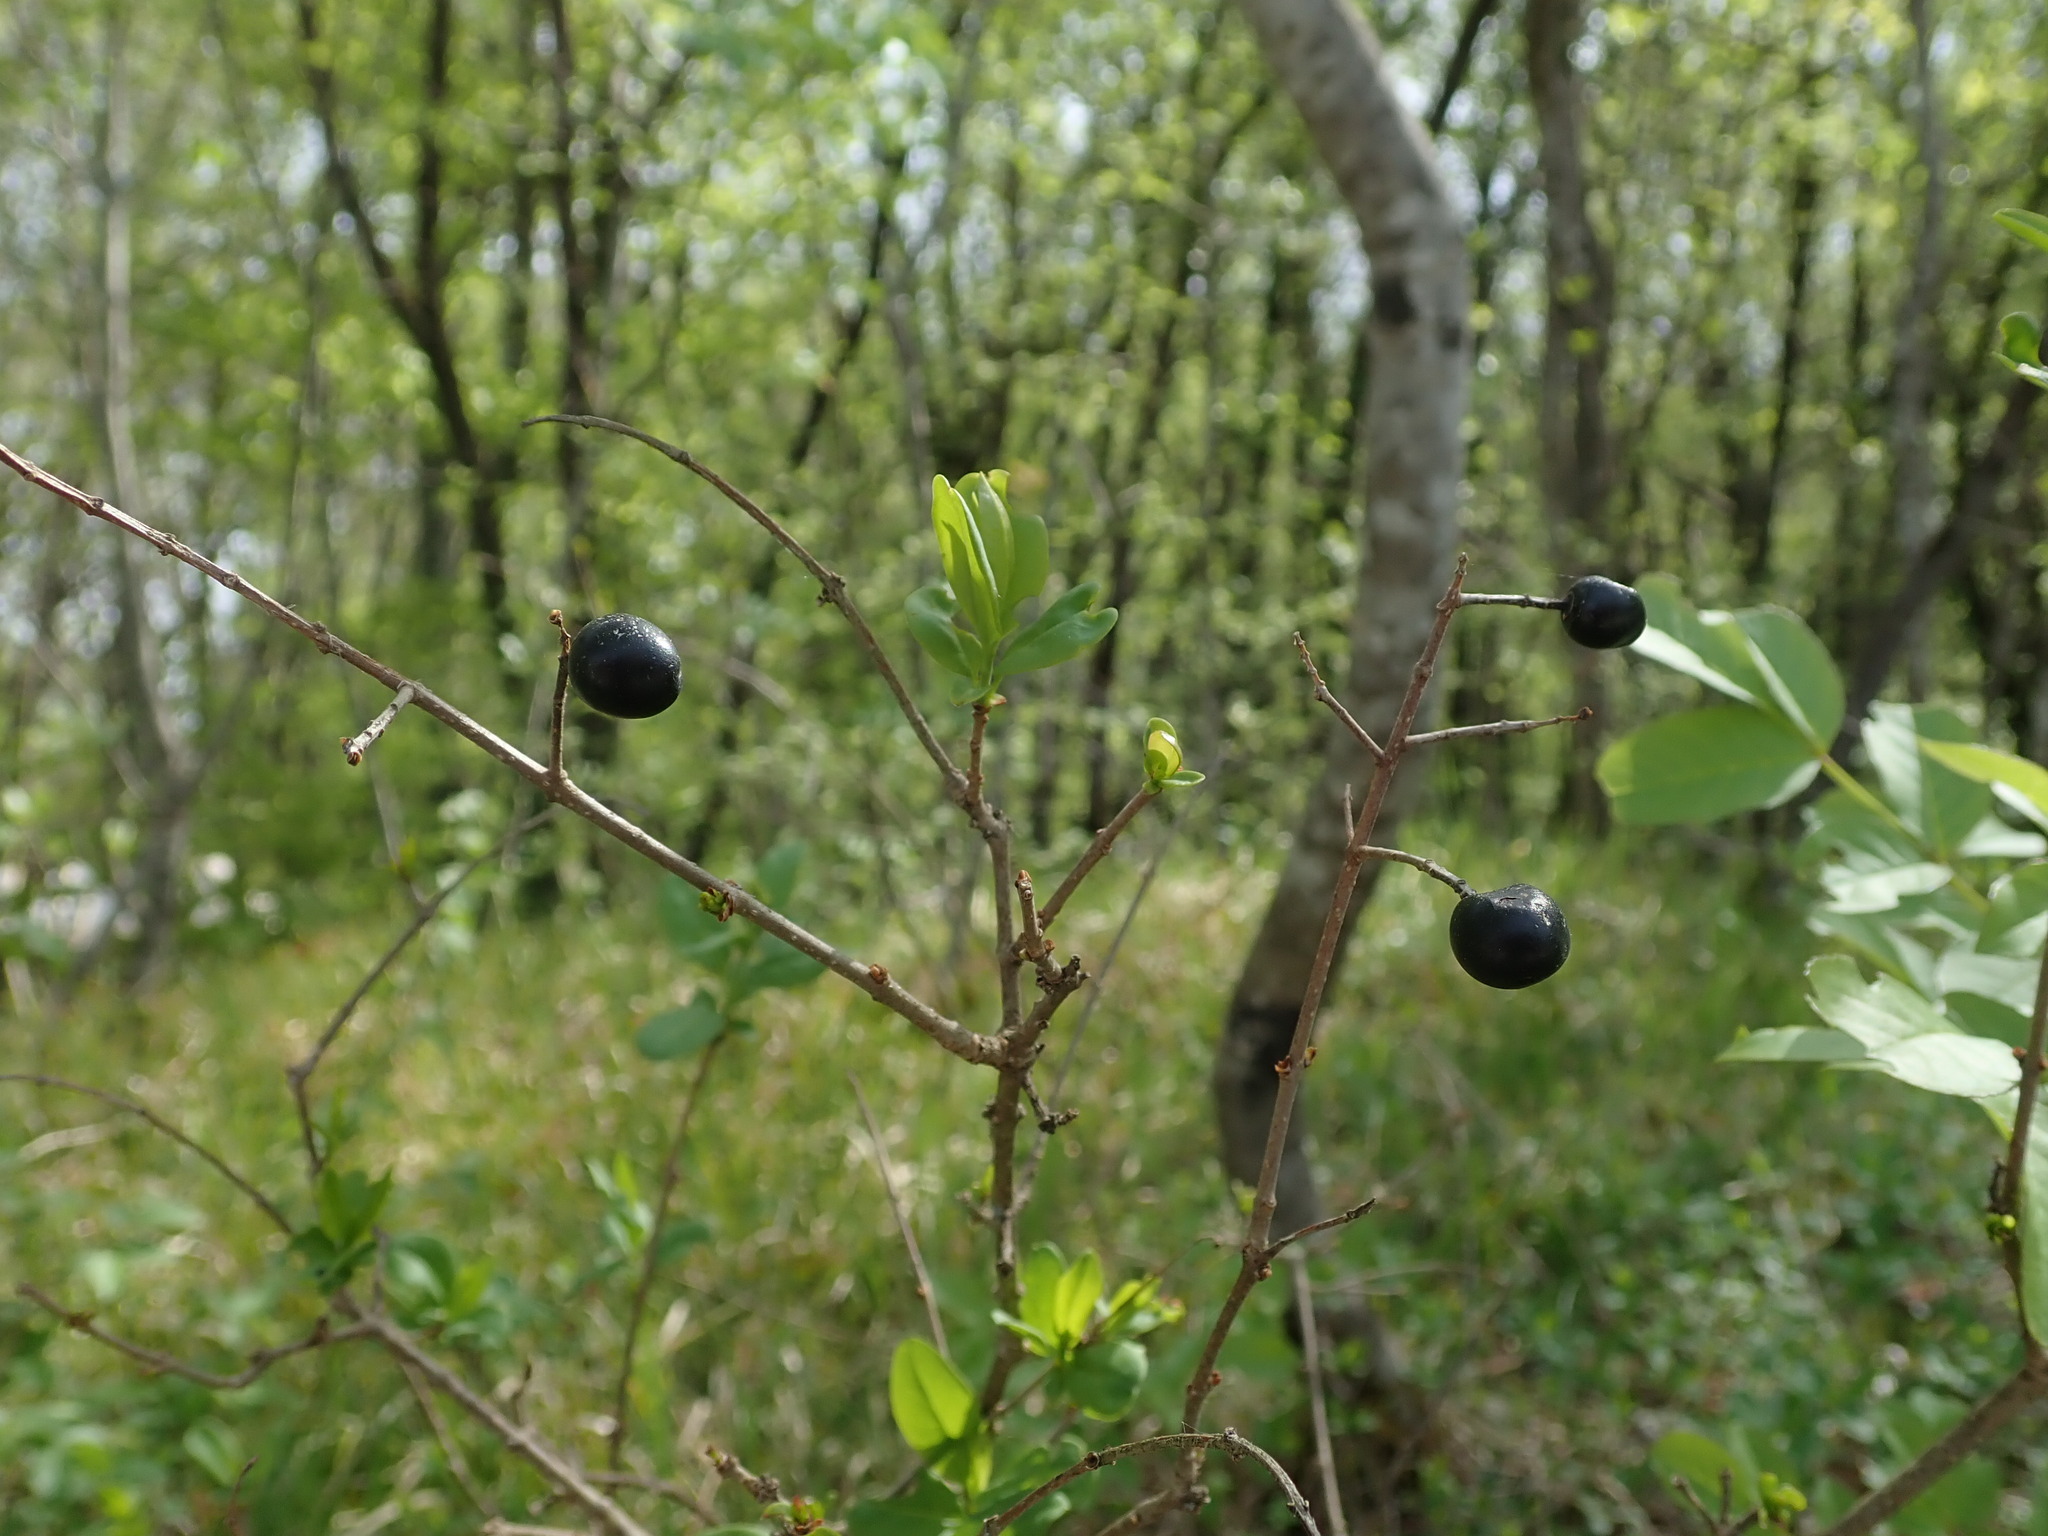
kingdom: Plantae
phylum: Tracheophyta
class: Magnoliopsida
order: Lamiales
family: Oleaceae
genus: Ligustrum
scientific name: Ligustrum vulgare
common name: Wild privet
